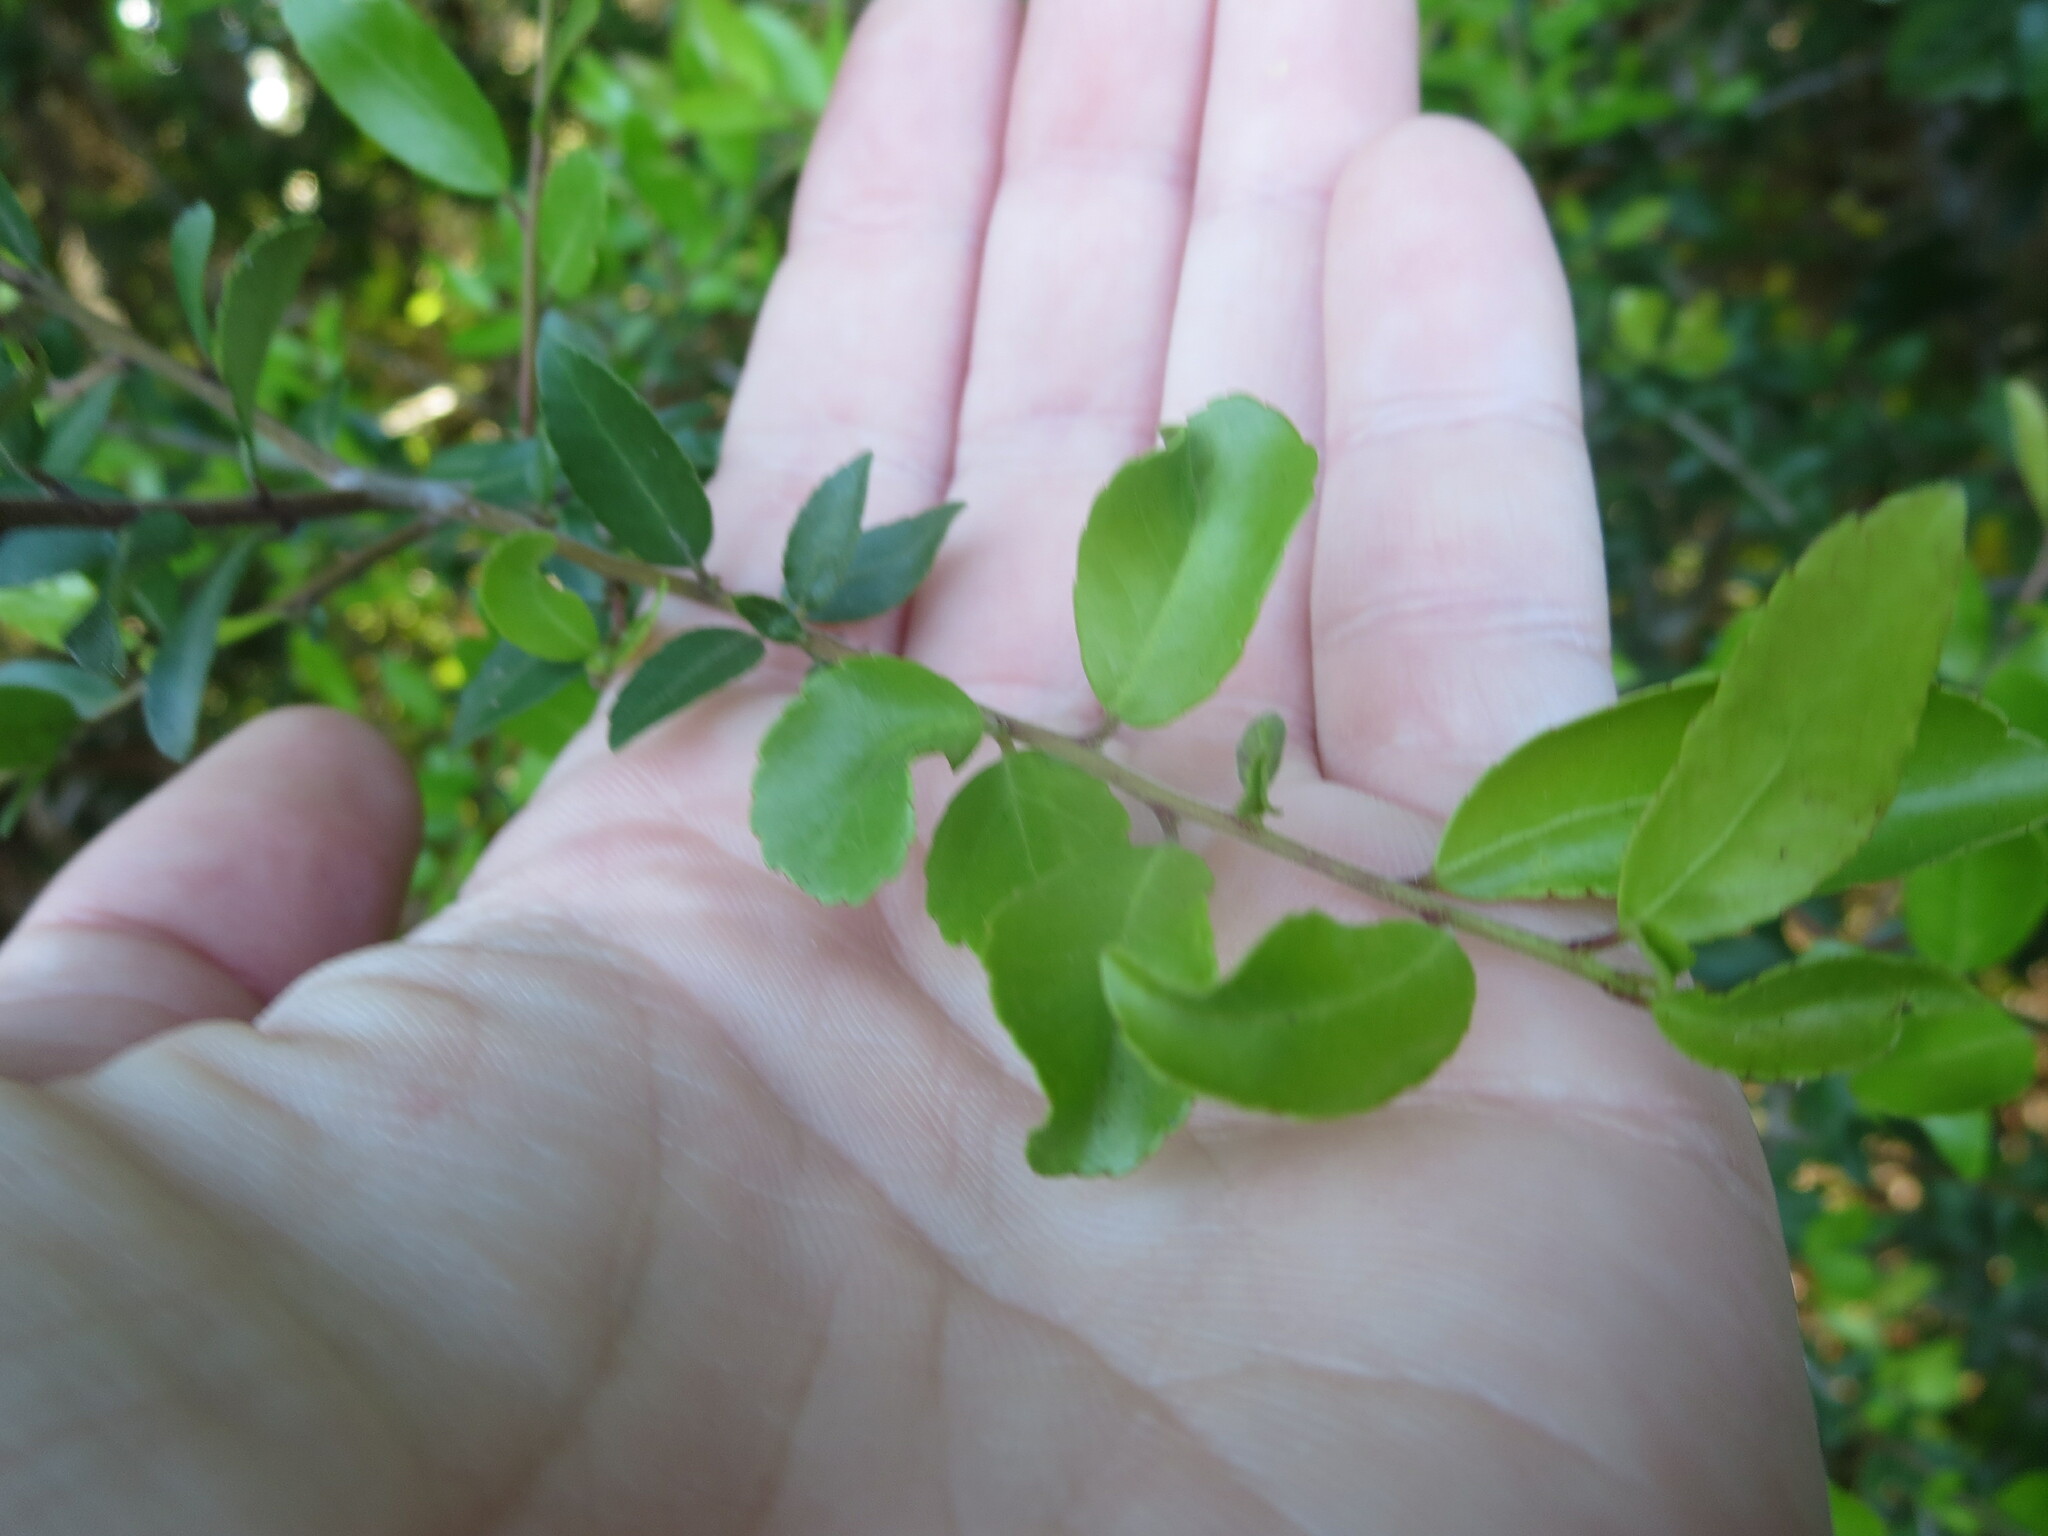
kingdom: Plantae
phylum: Tracheophyta
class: Magnoliopsida
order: Aquifoliales
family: Aquifoliaceae
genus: Ilex
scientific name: Ilex vomitoria
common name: Yaupon holly
